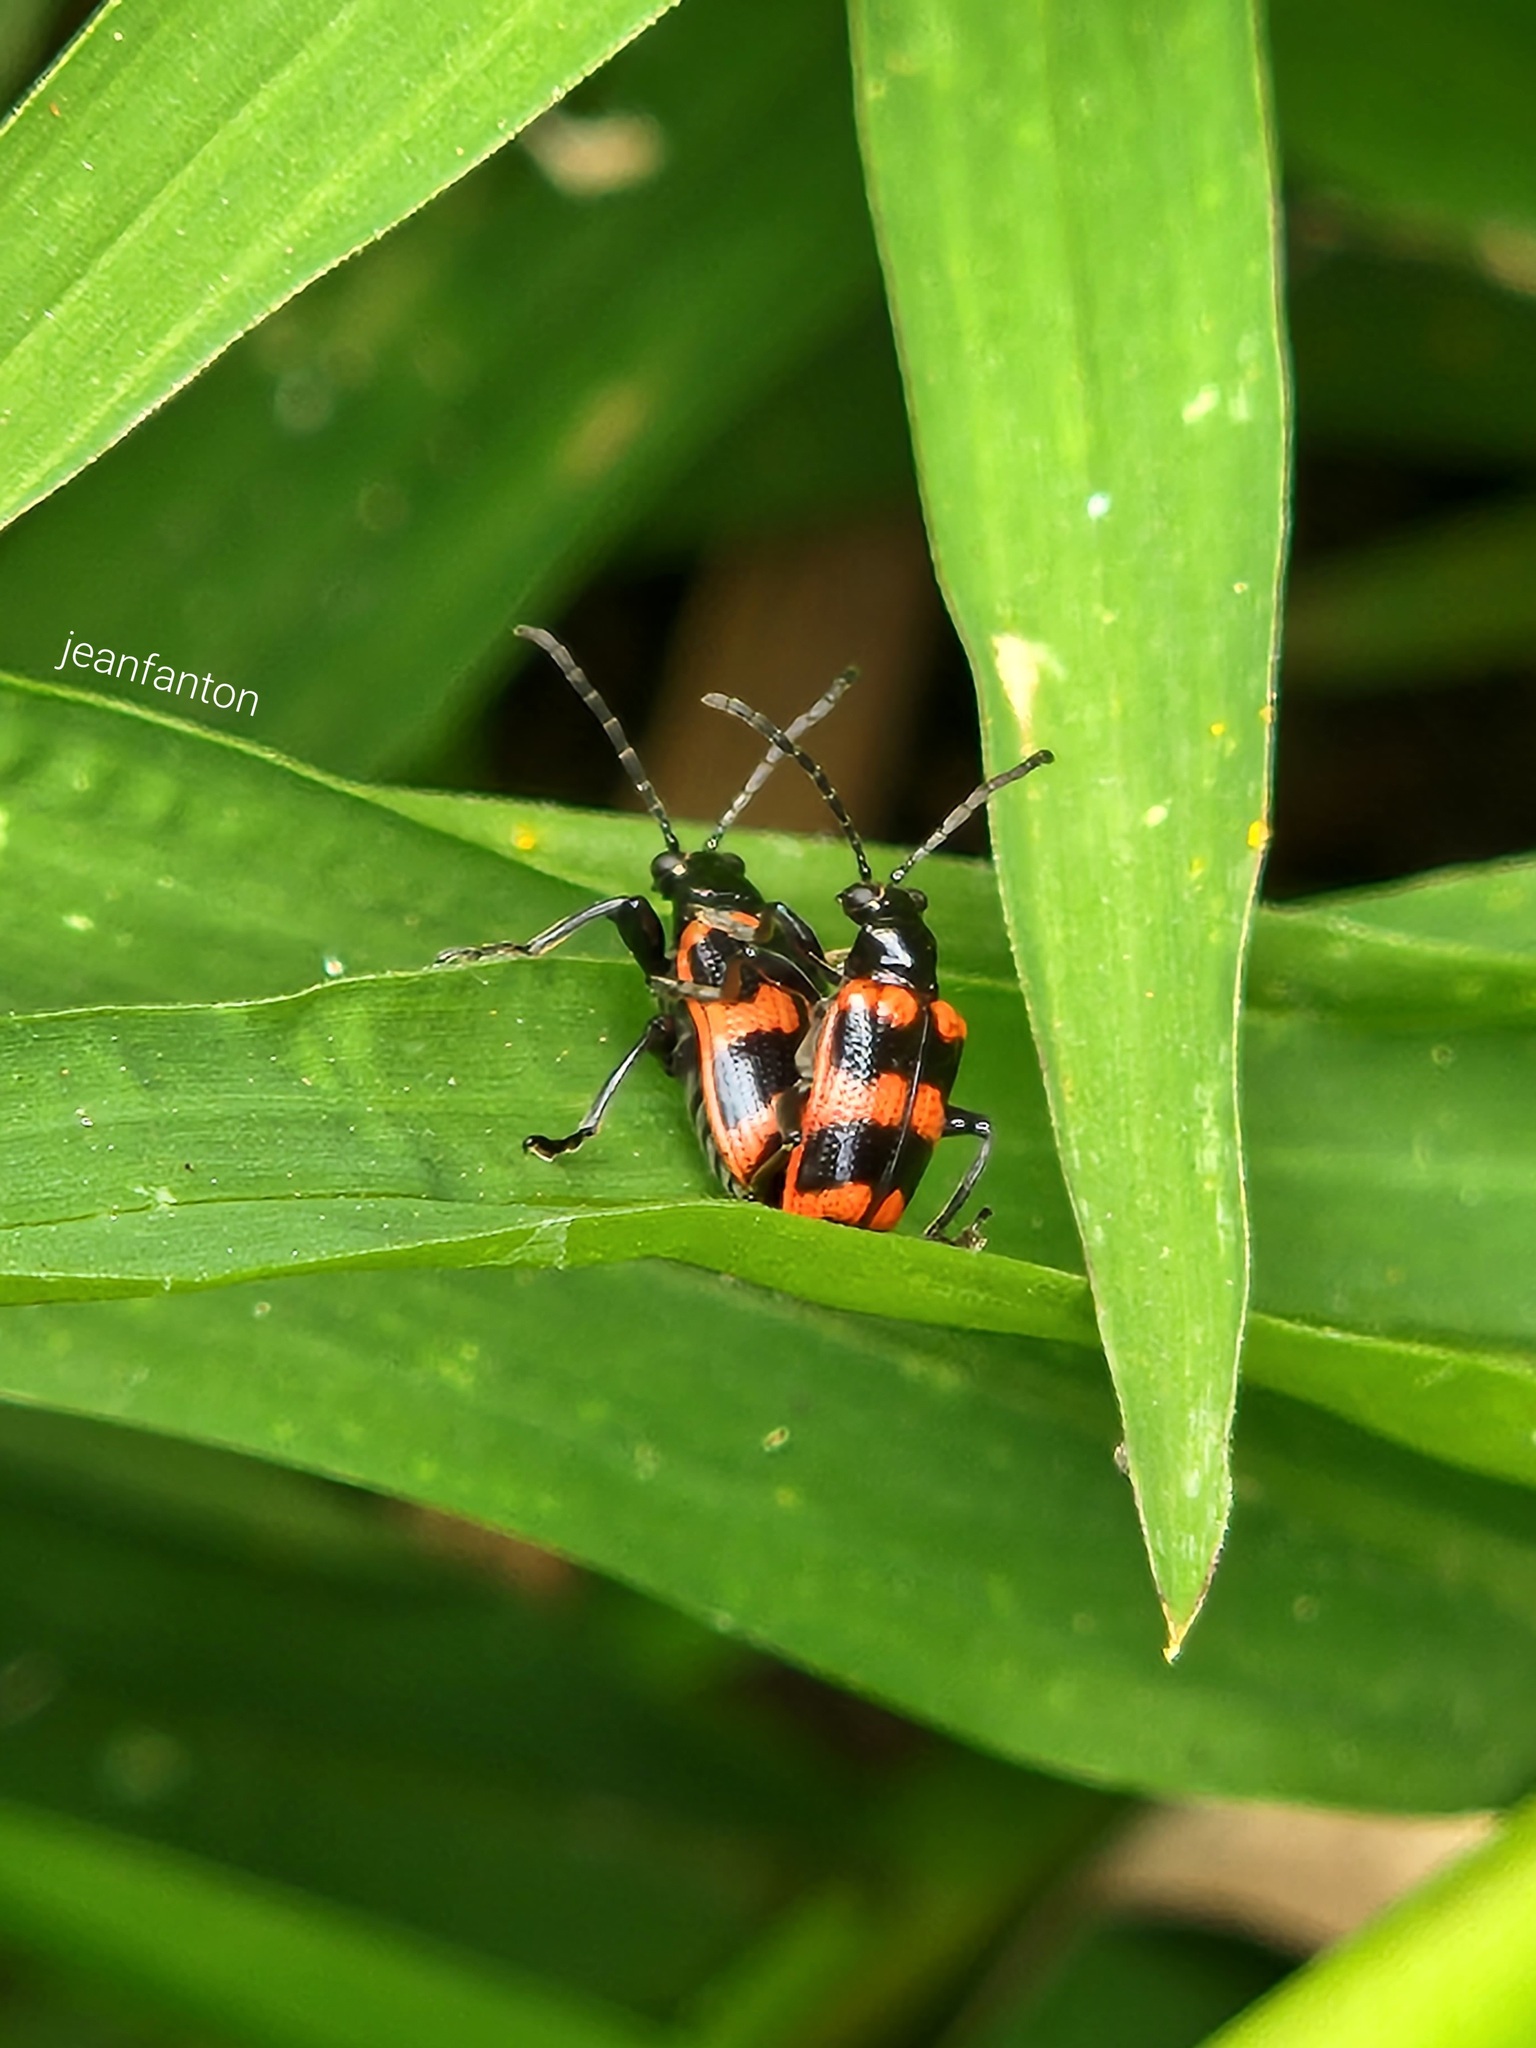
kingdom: Animalia
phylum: Arthropoda
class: Insecta
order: Coleoptera
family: Chrysomelidae
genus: Neolema
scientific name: Neolema
